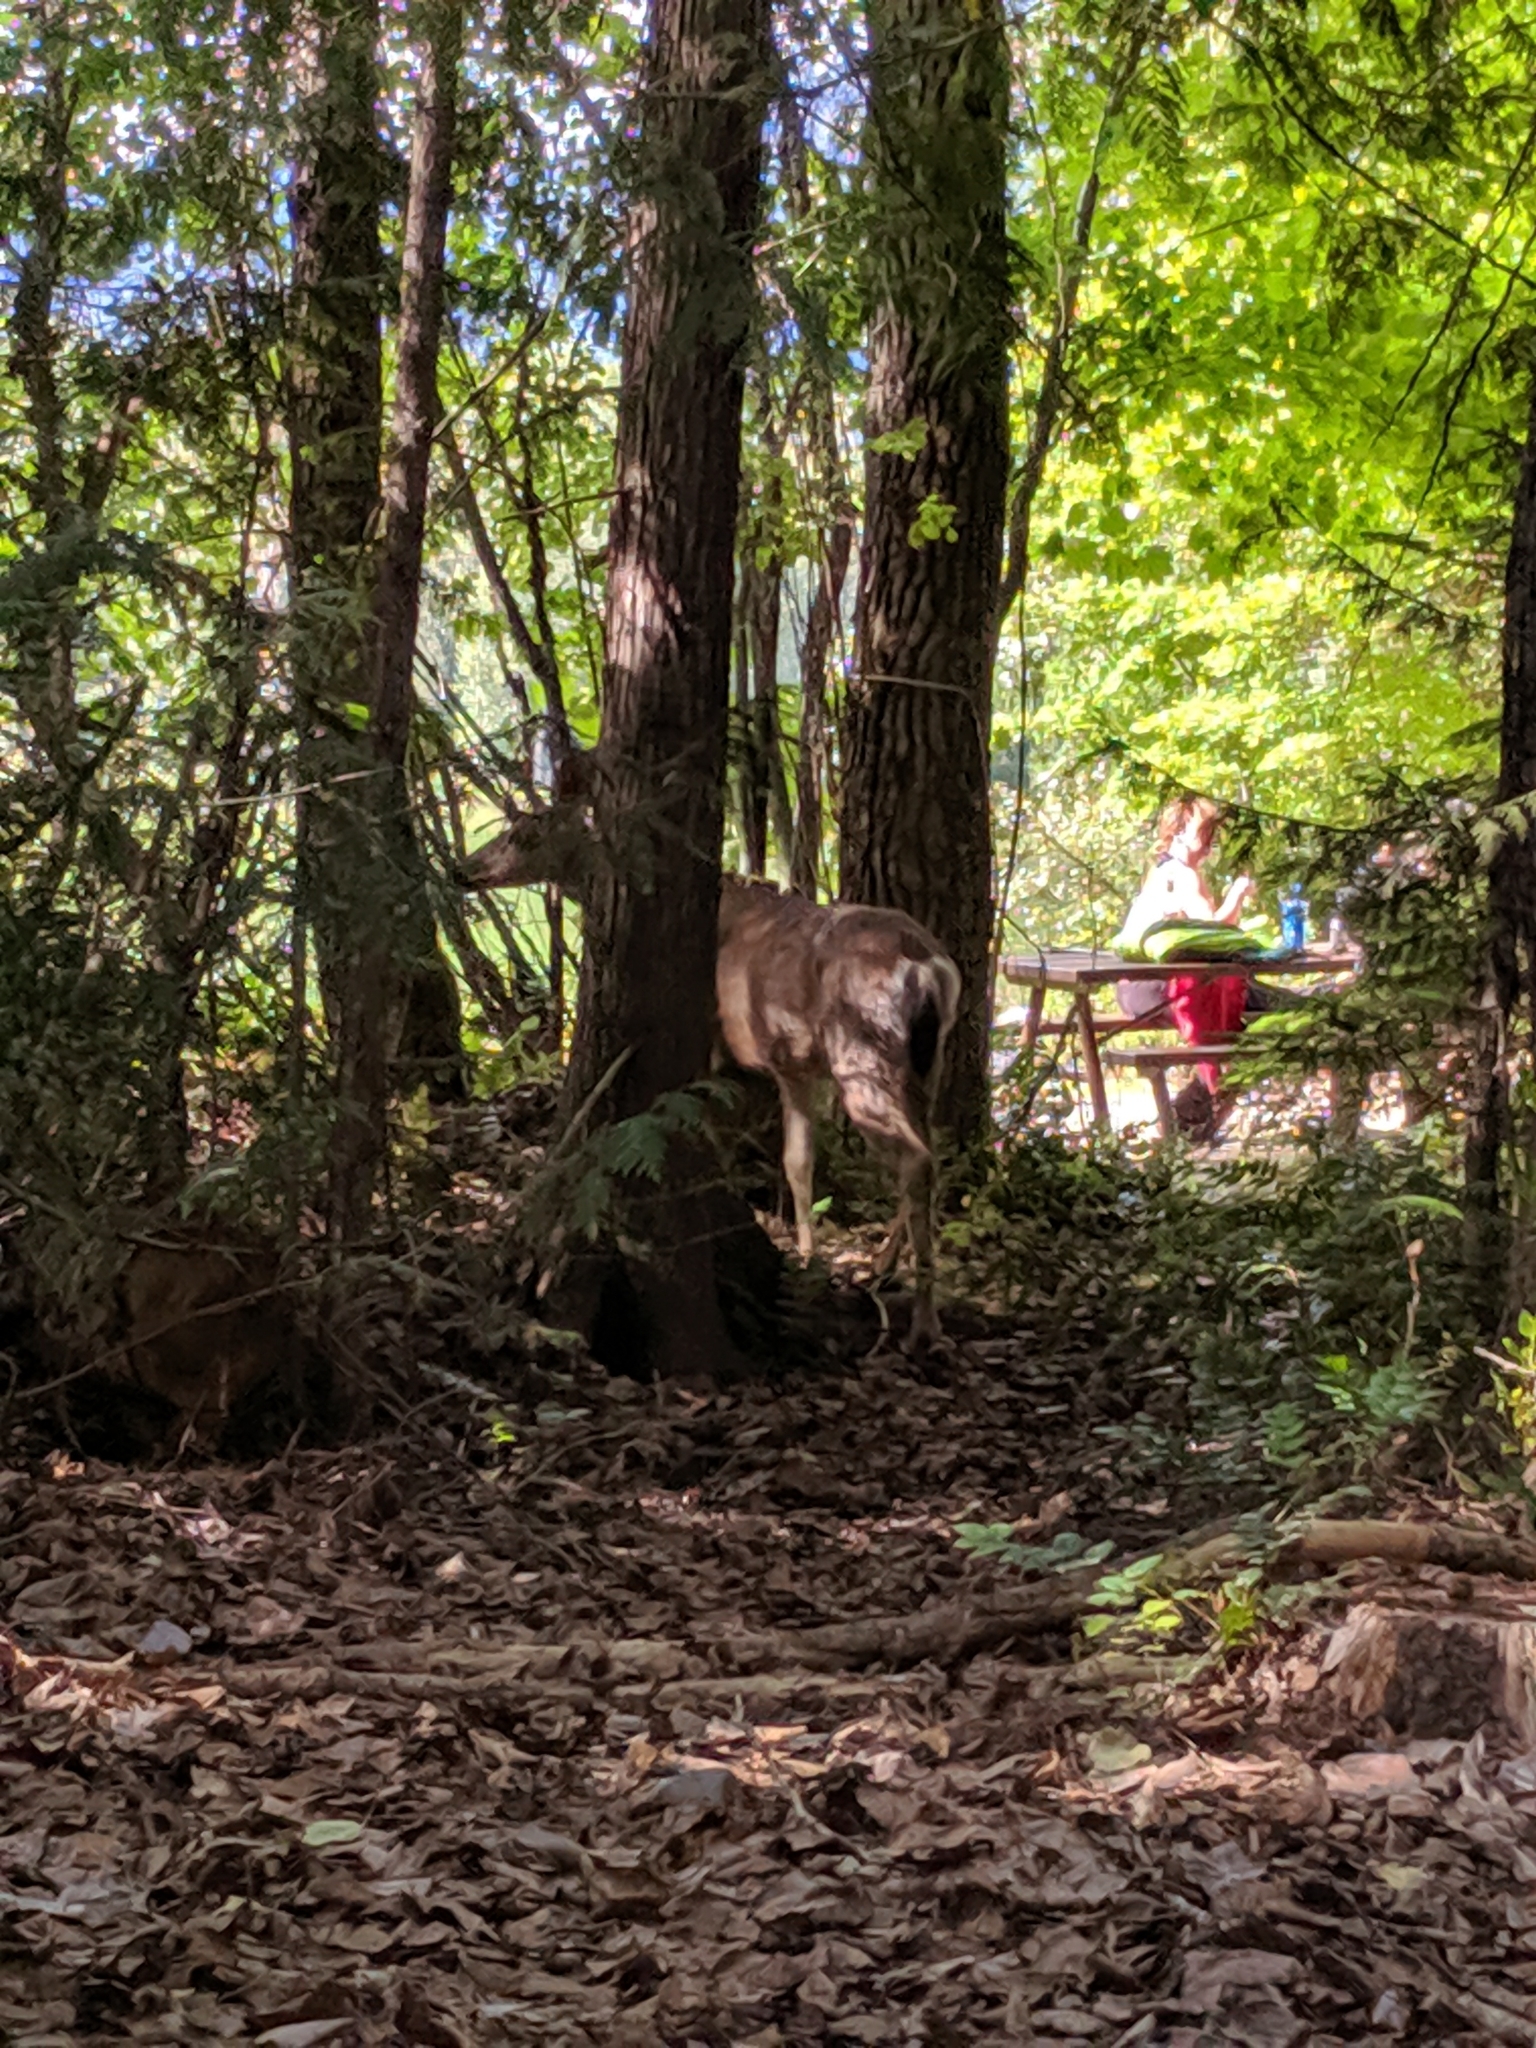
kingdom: Animalia
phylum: Chordata
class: Mammalia
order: Artiodactyla
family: Cervidae
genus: Odocoileus
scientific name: Odocoileus hemionus
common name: Mule deer
